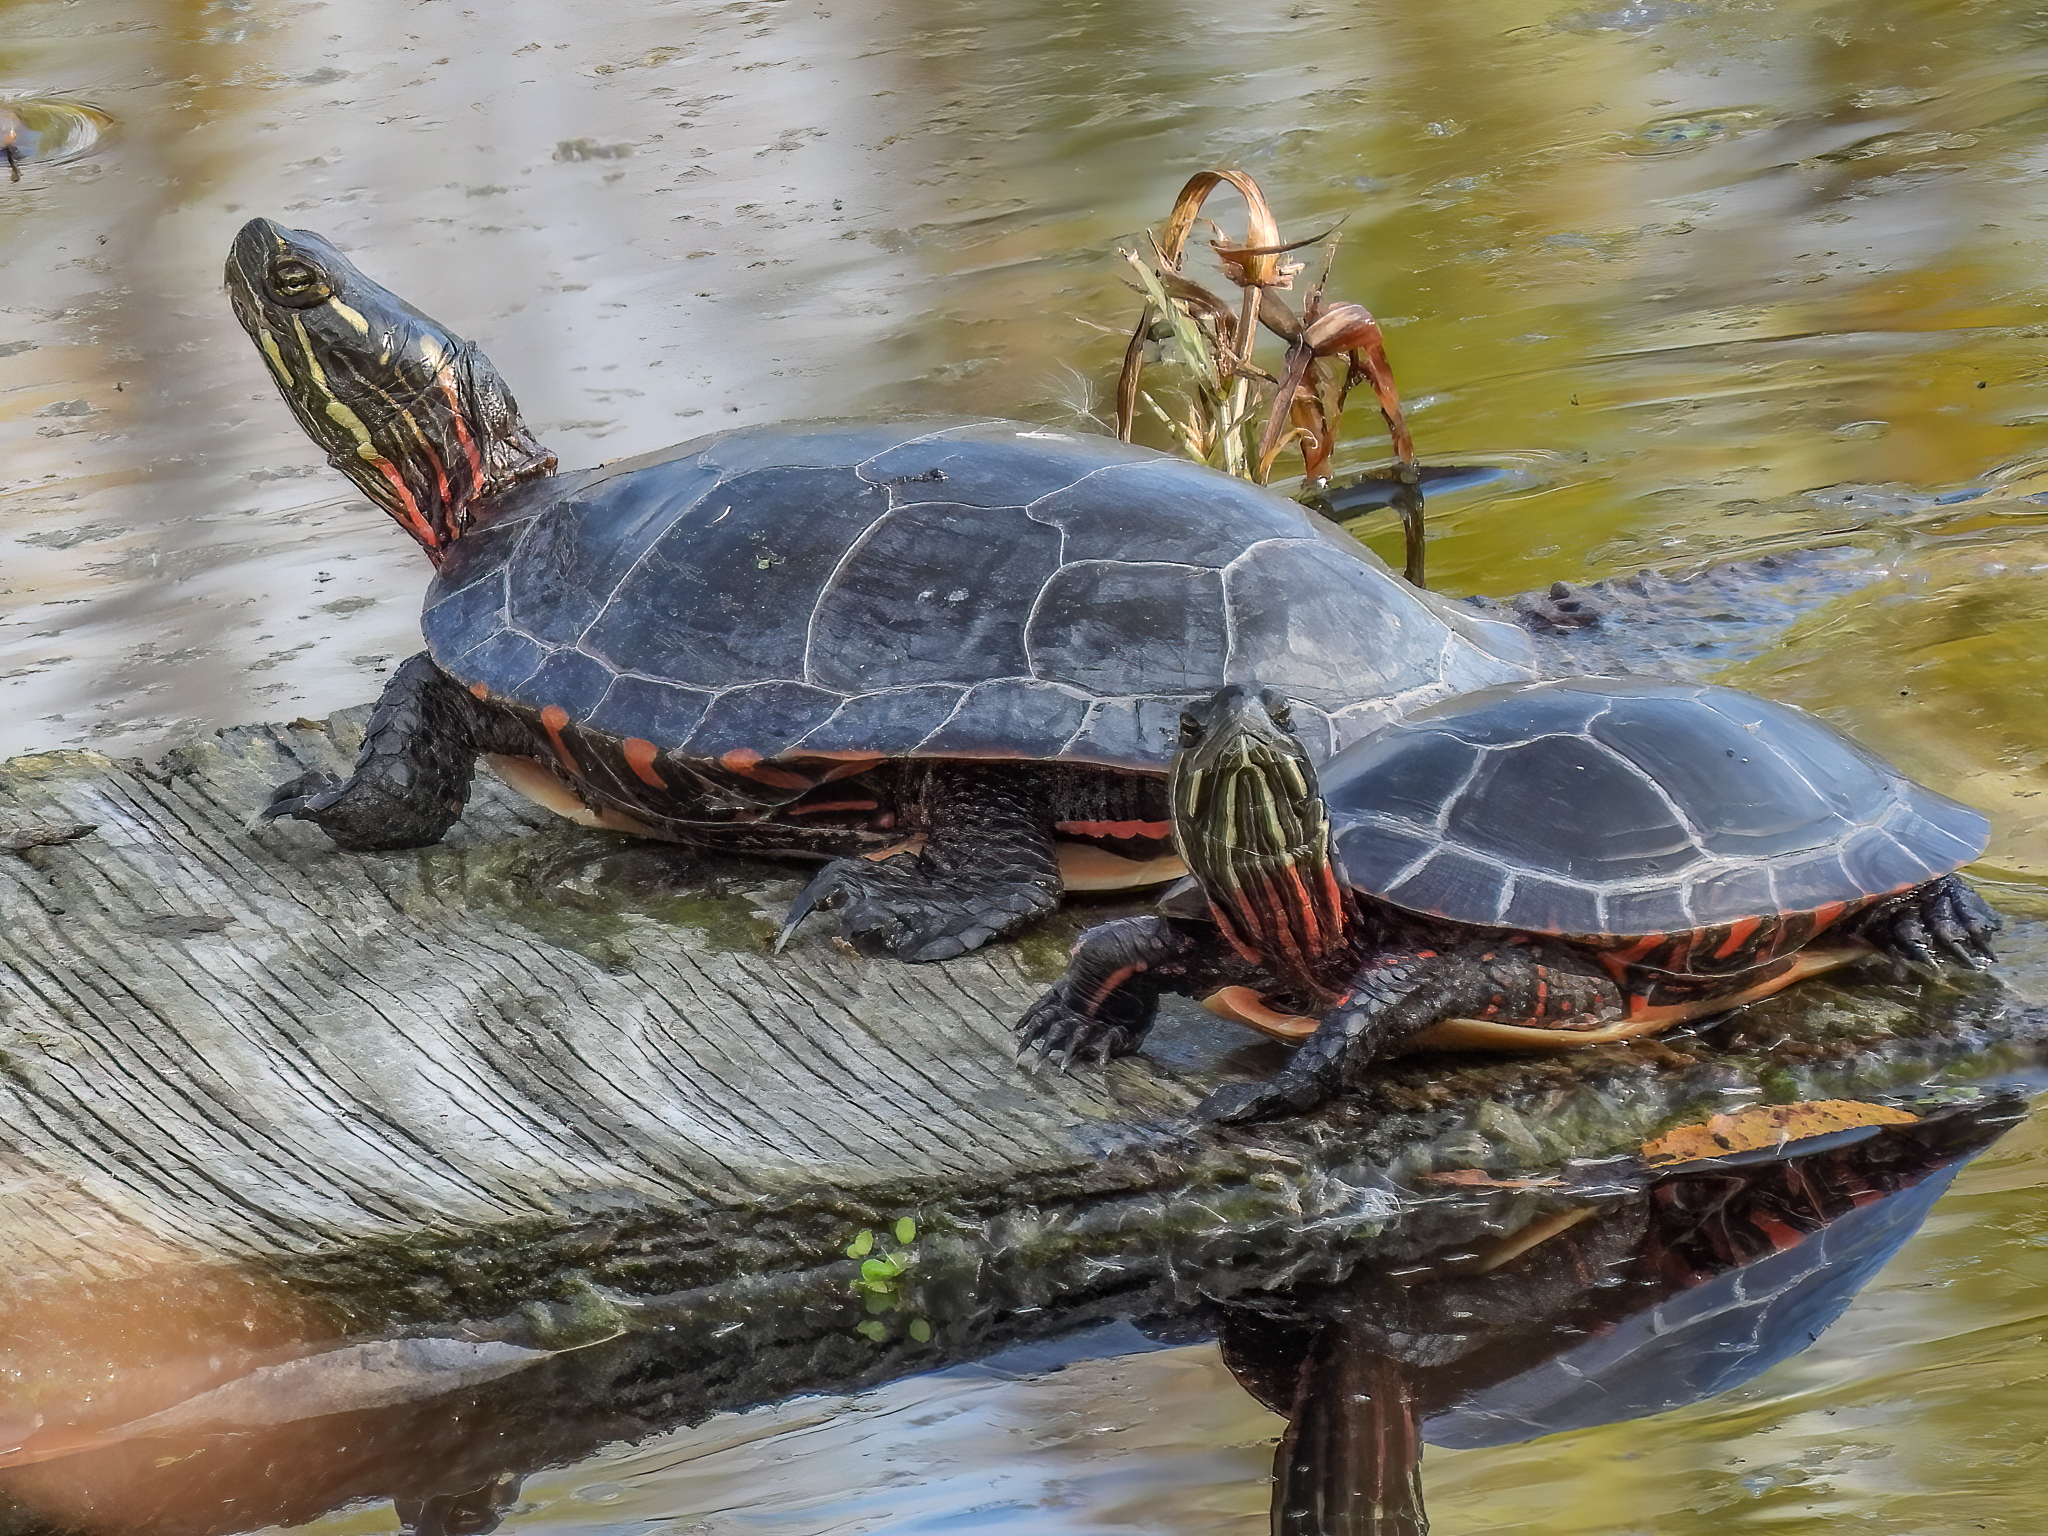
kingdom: Animalia
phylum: Chordata
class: Testudines
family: Emydidae
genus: Chrysemys
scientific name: Chrysemys picta
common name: Painted turtle
